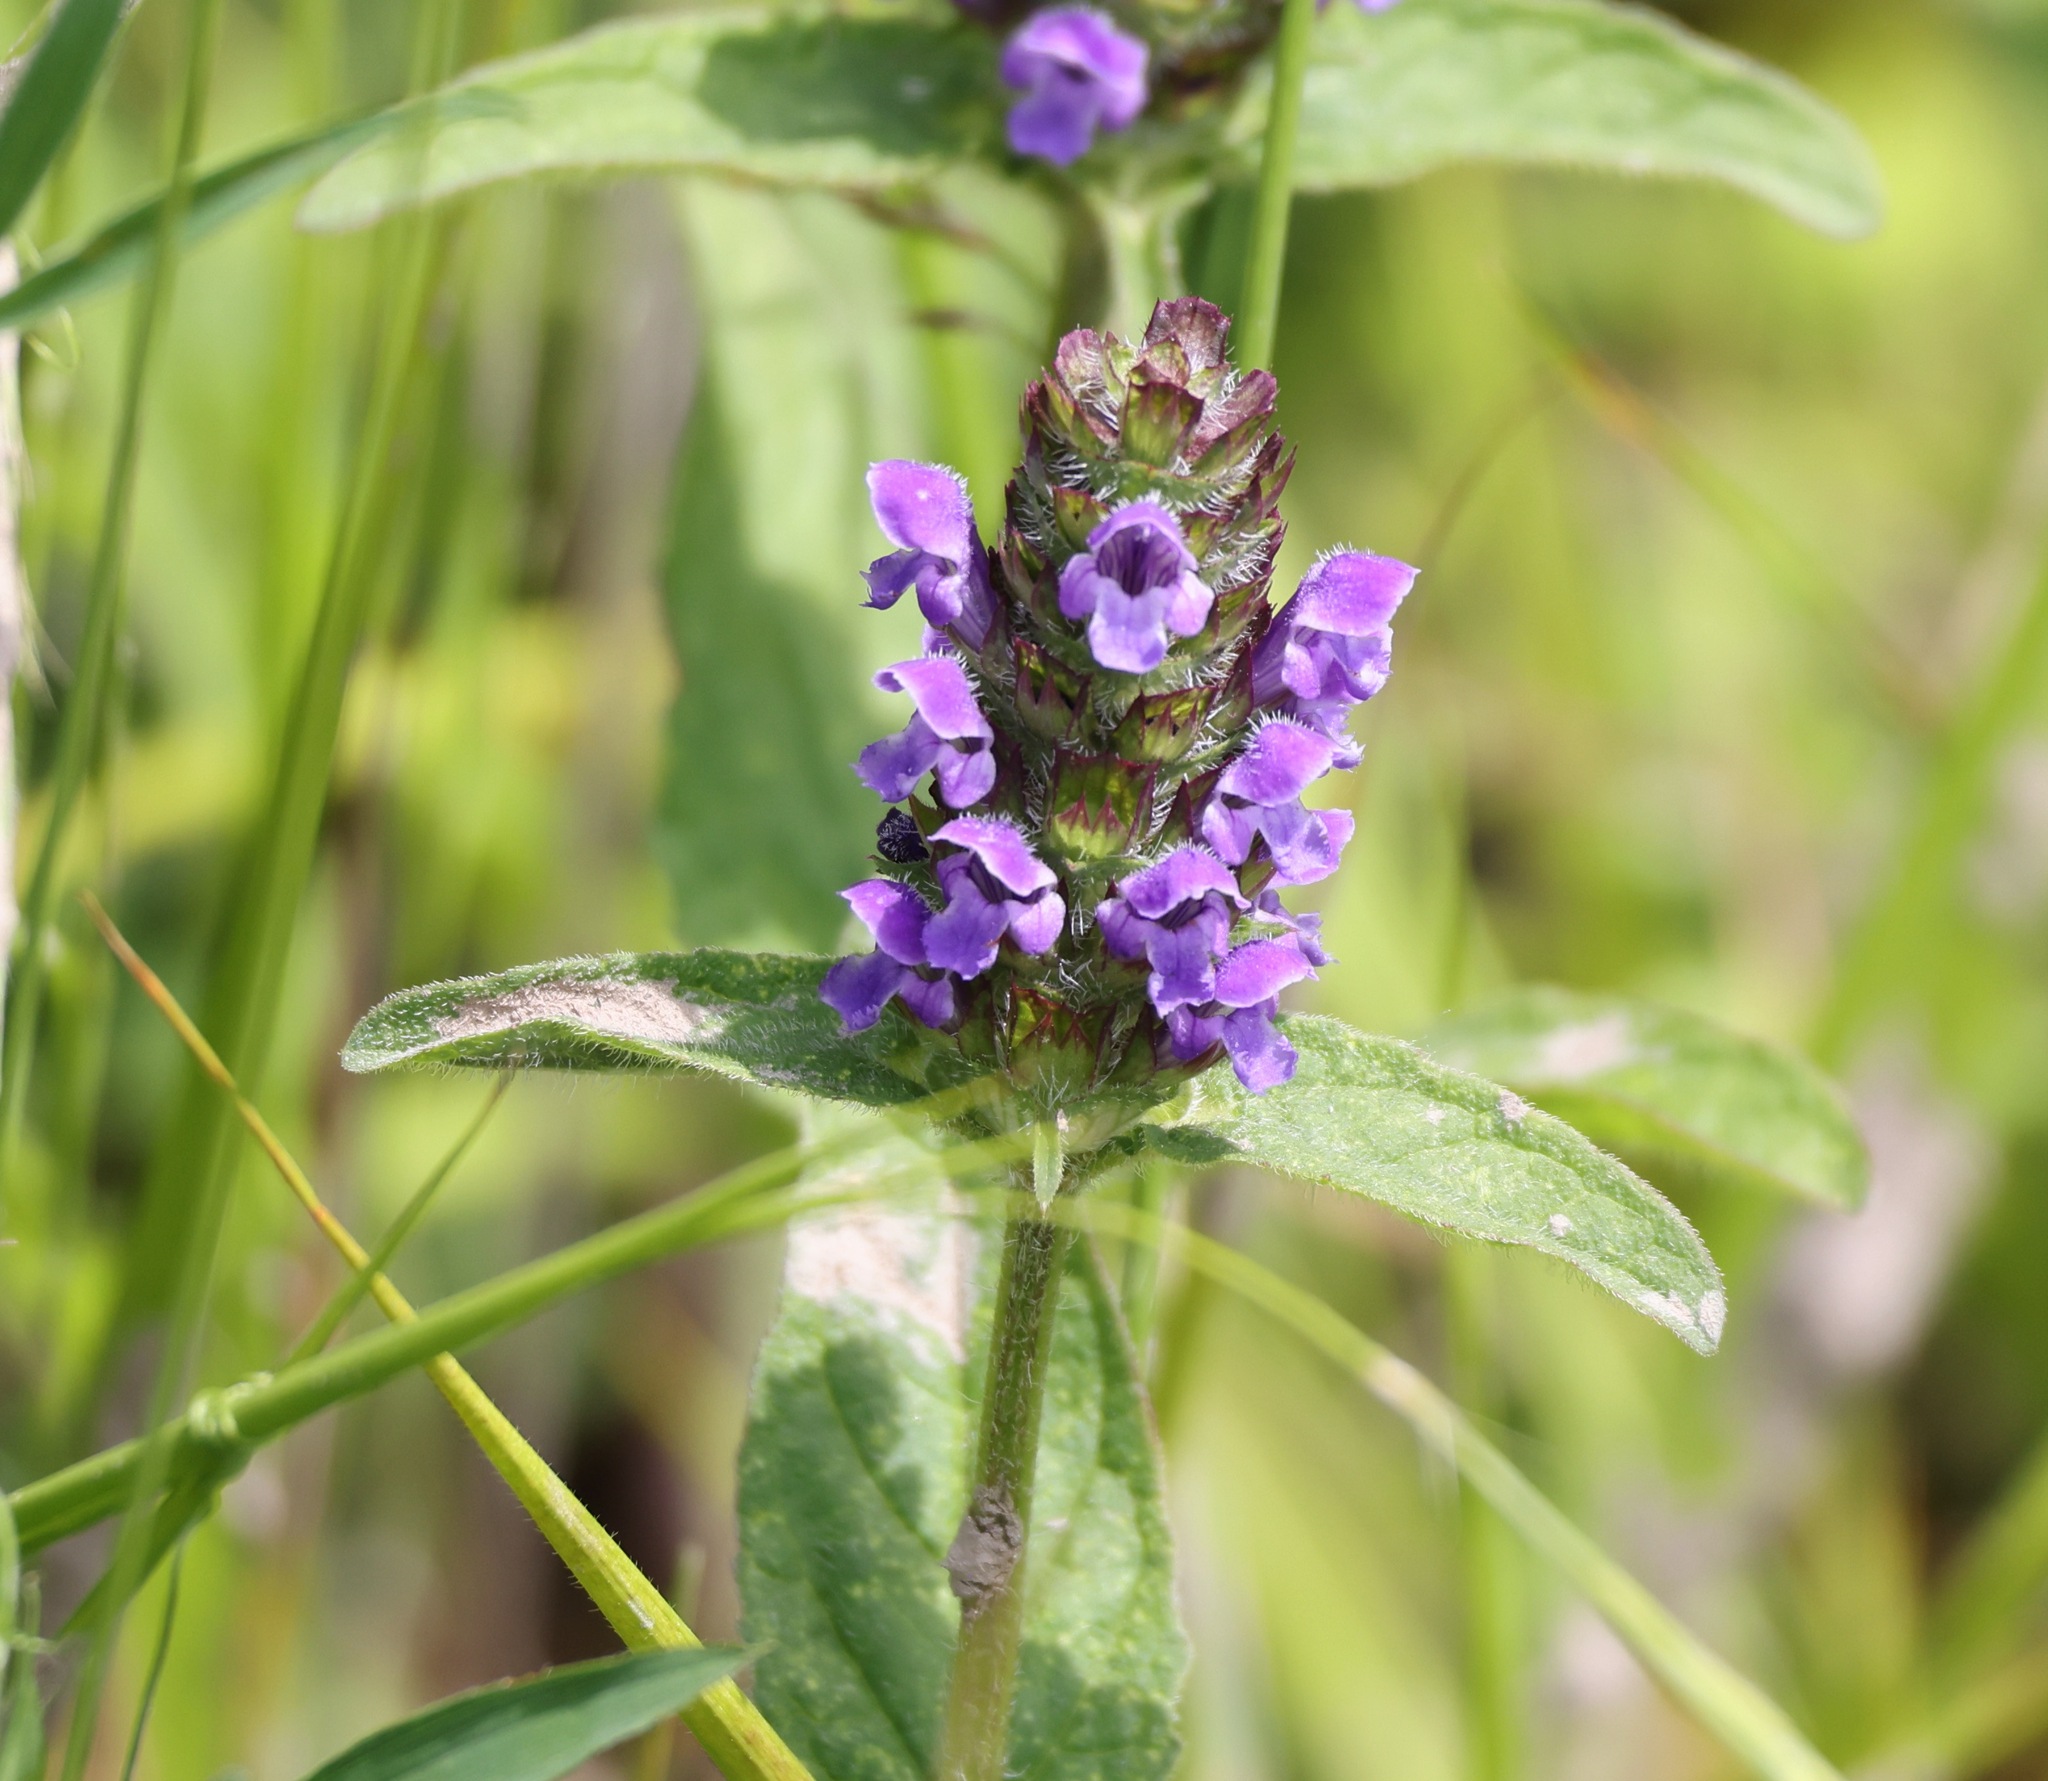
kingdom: Plantae
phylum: Tracheophyta
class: Magnoliopsida
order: Lamiales
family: Lamiaceae
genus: Prunella
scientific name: Prunella vulgaris
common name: Heal-all
